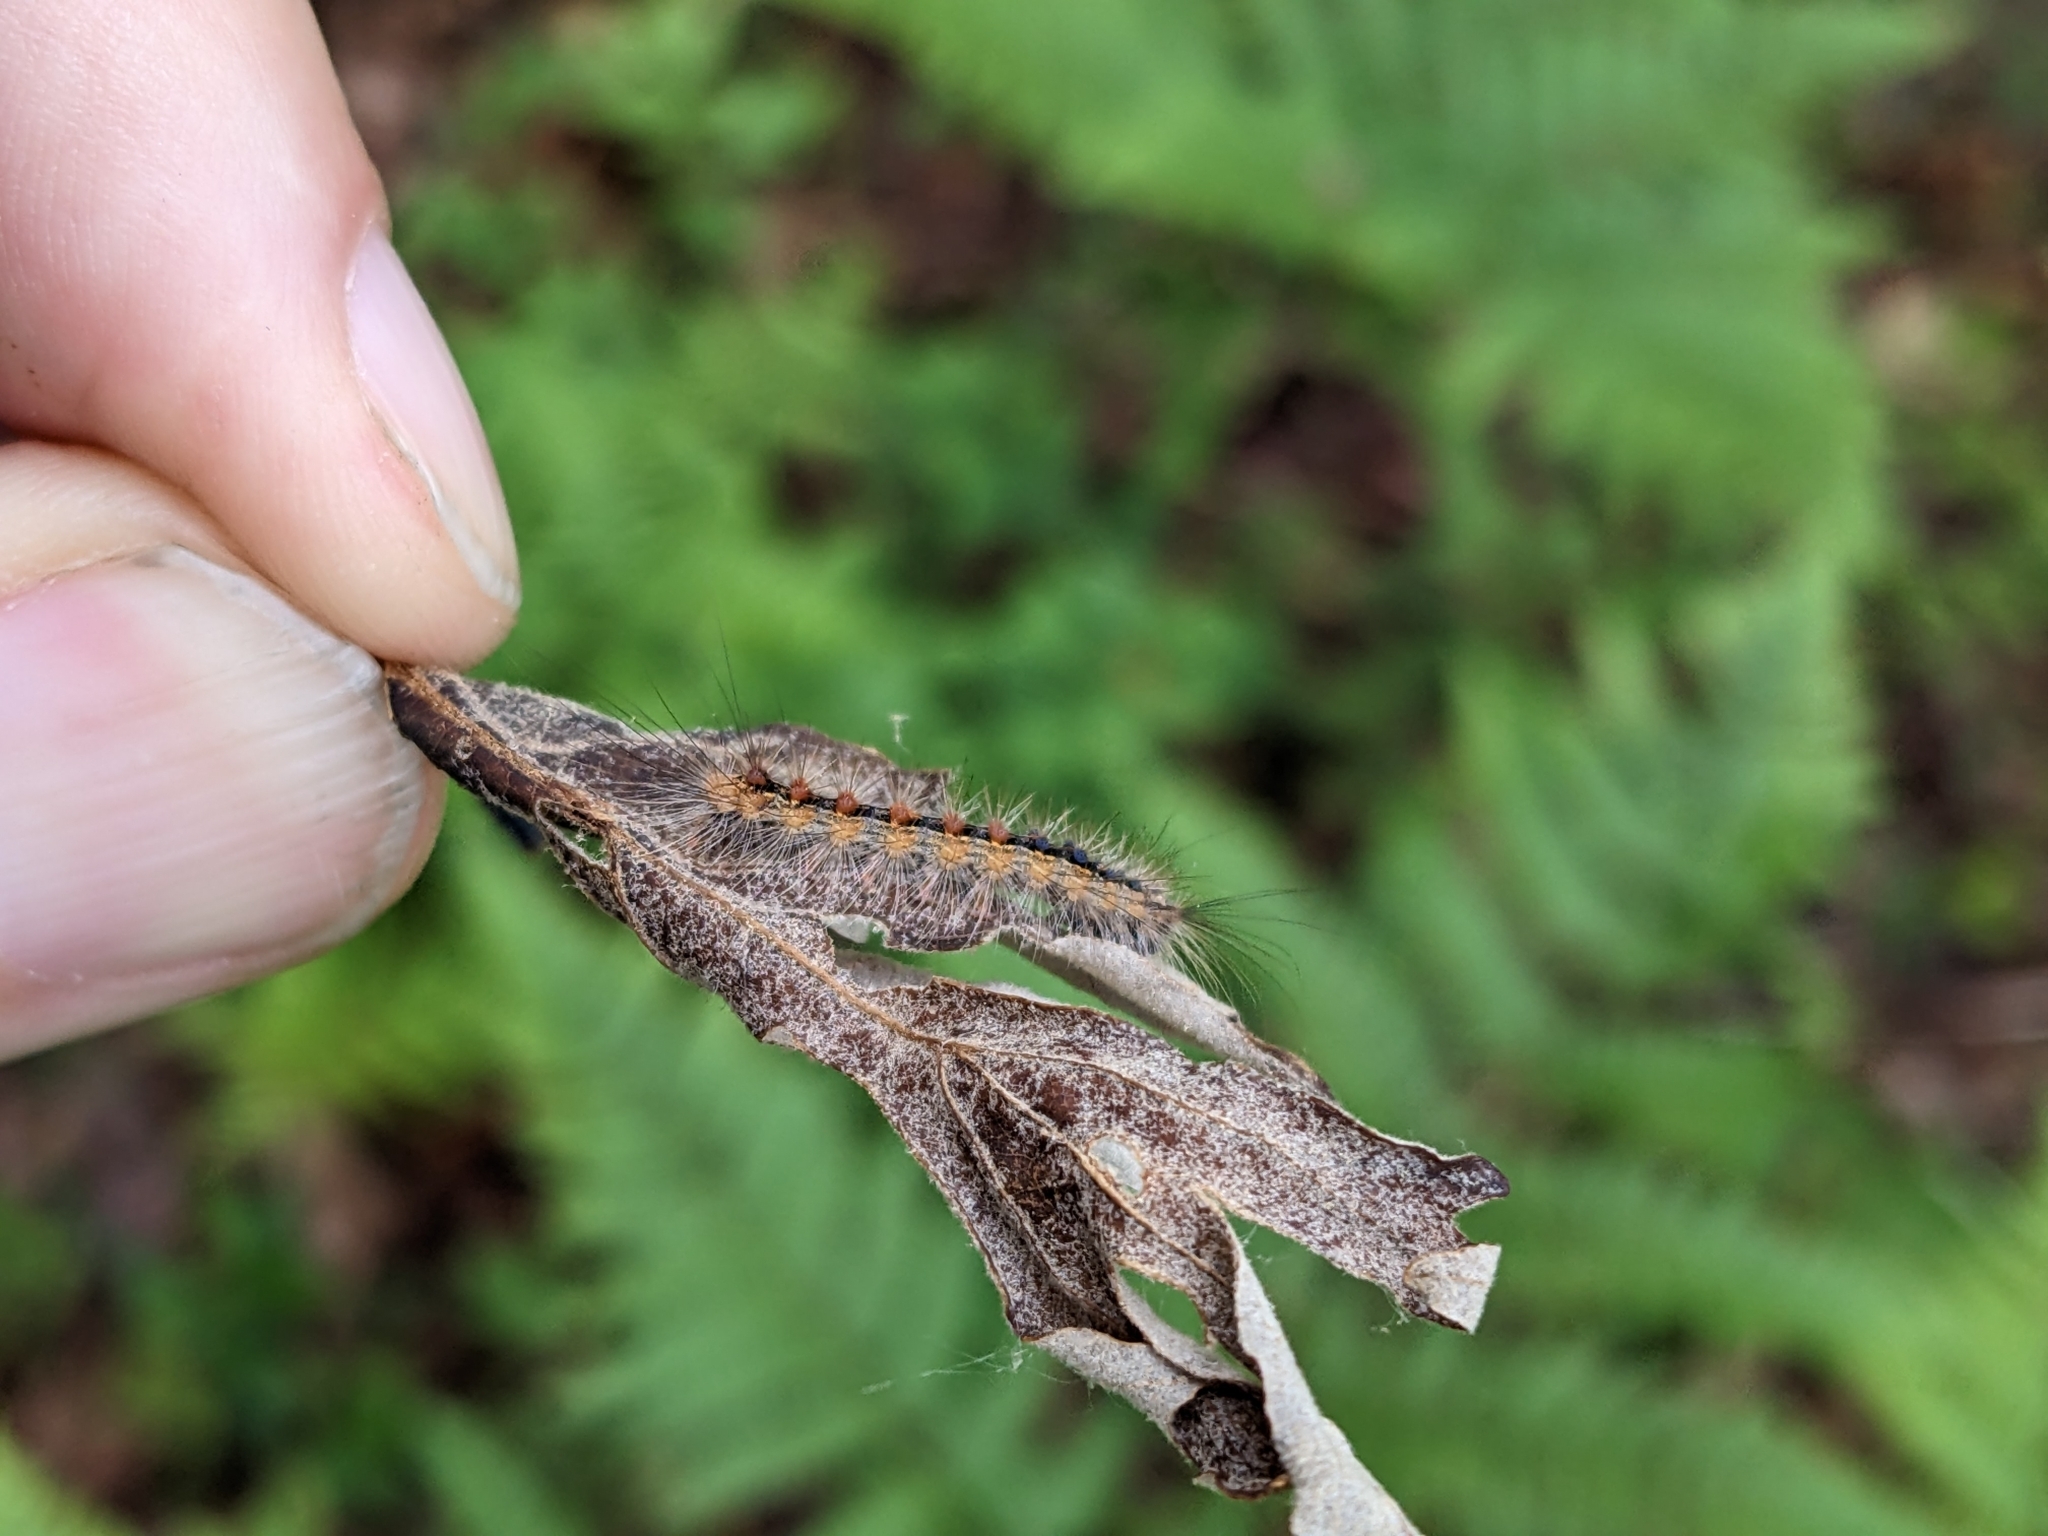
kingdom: Animalia
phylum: Arthropoda
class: Insecta
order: Lepidoptera
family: Erebidae
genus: Lymantria
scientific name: Lymantria dispar
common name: Gypsy moth
